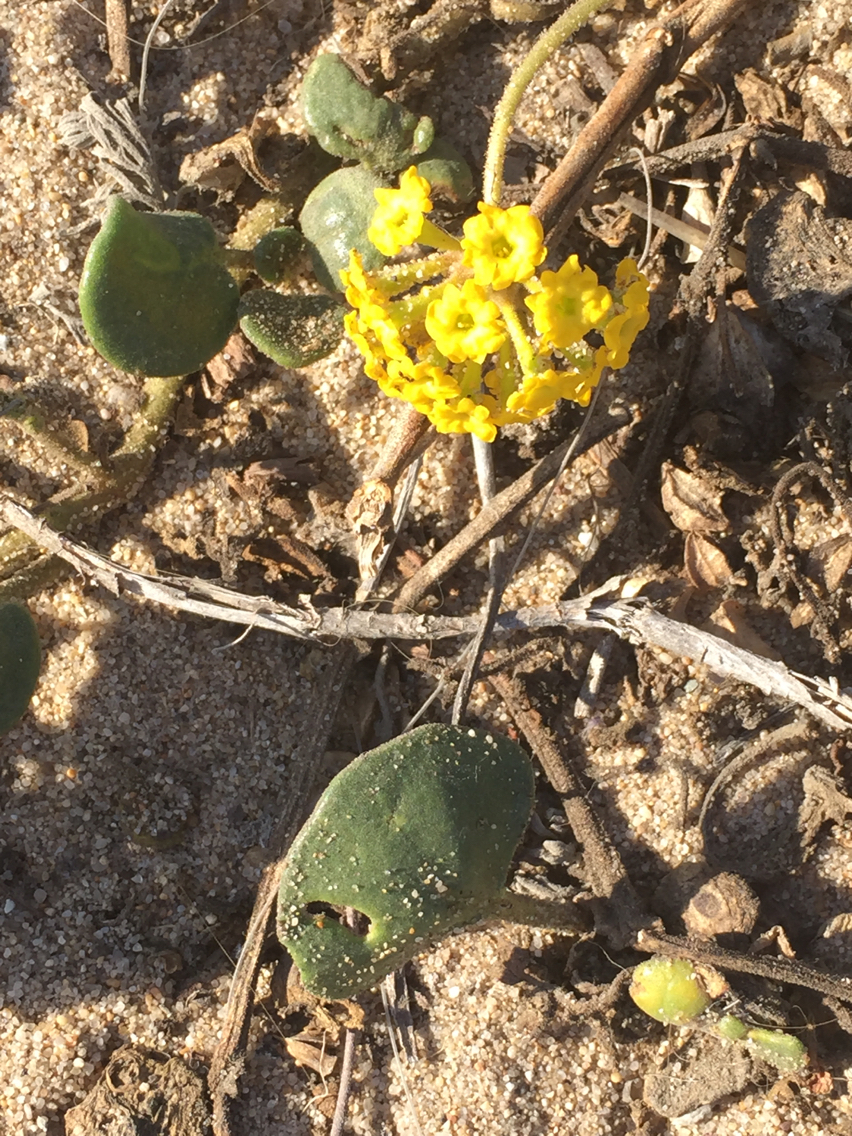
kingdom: Plantae
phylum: Tracheophyta
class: Magnoliopsida
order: Caryophyllales
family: Nyctaginaceae
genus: Abronia
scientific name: Abronia latifolia
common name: Yellow sand-verbena
